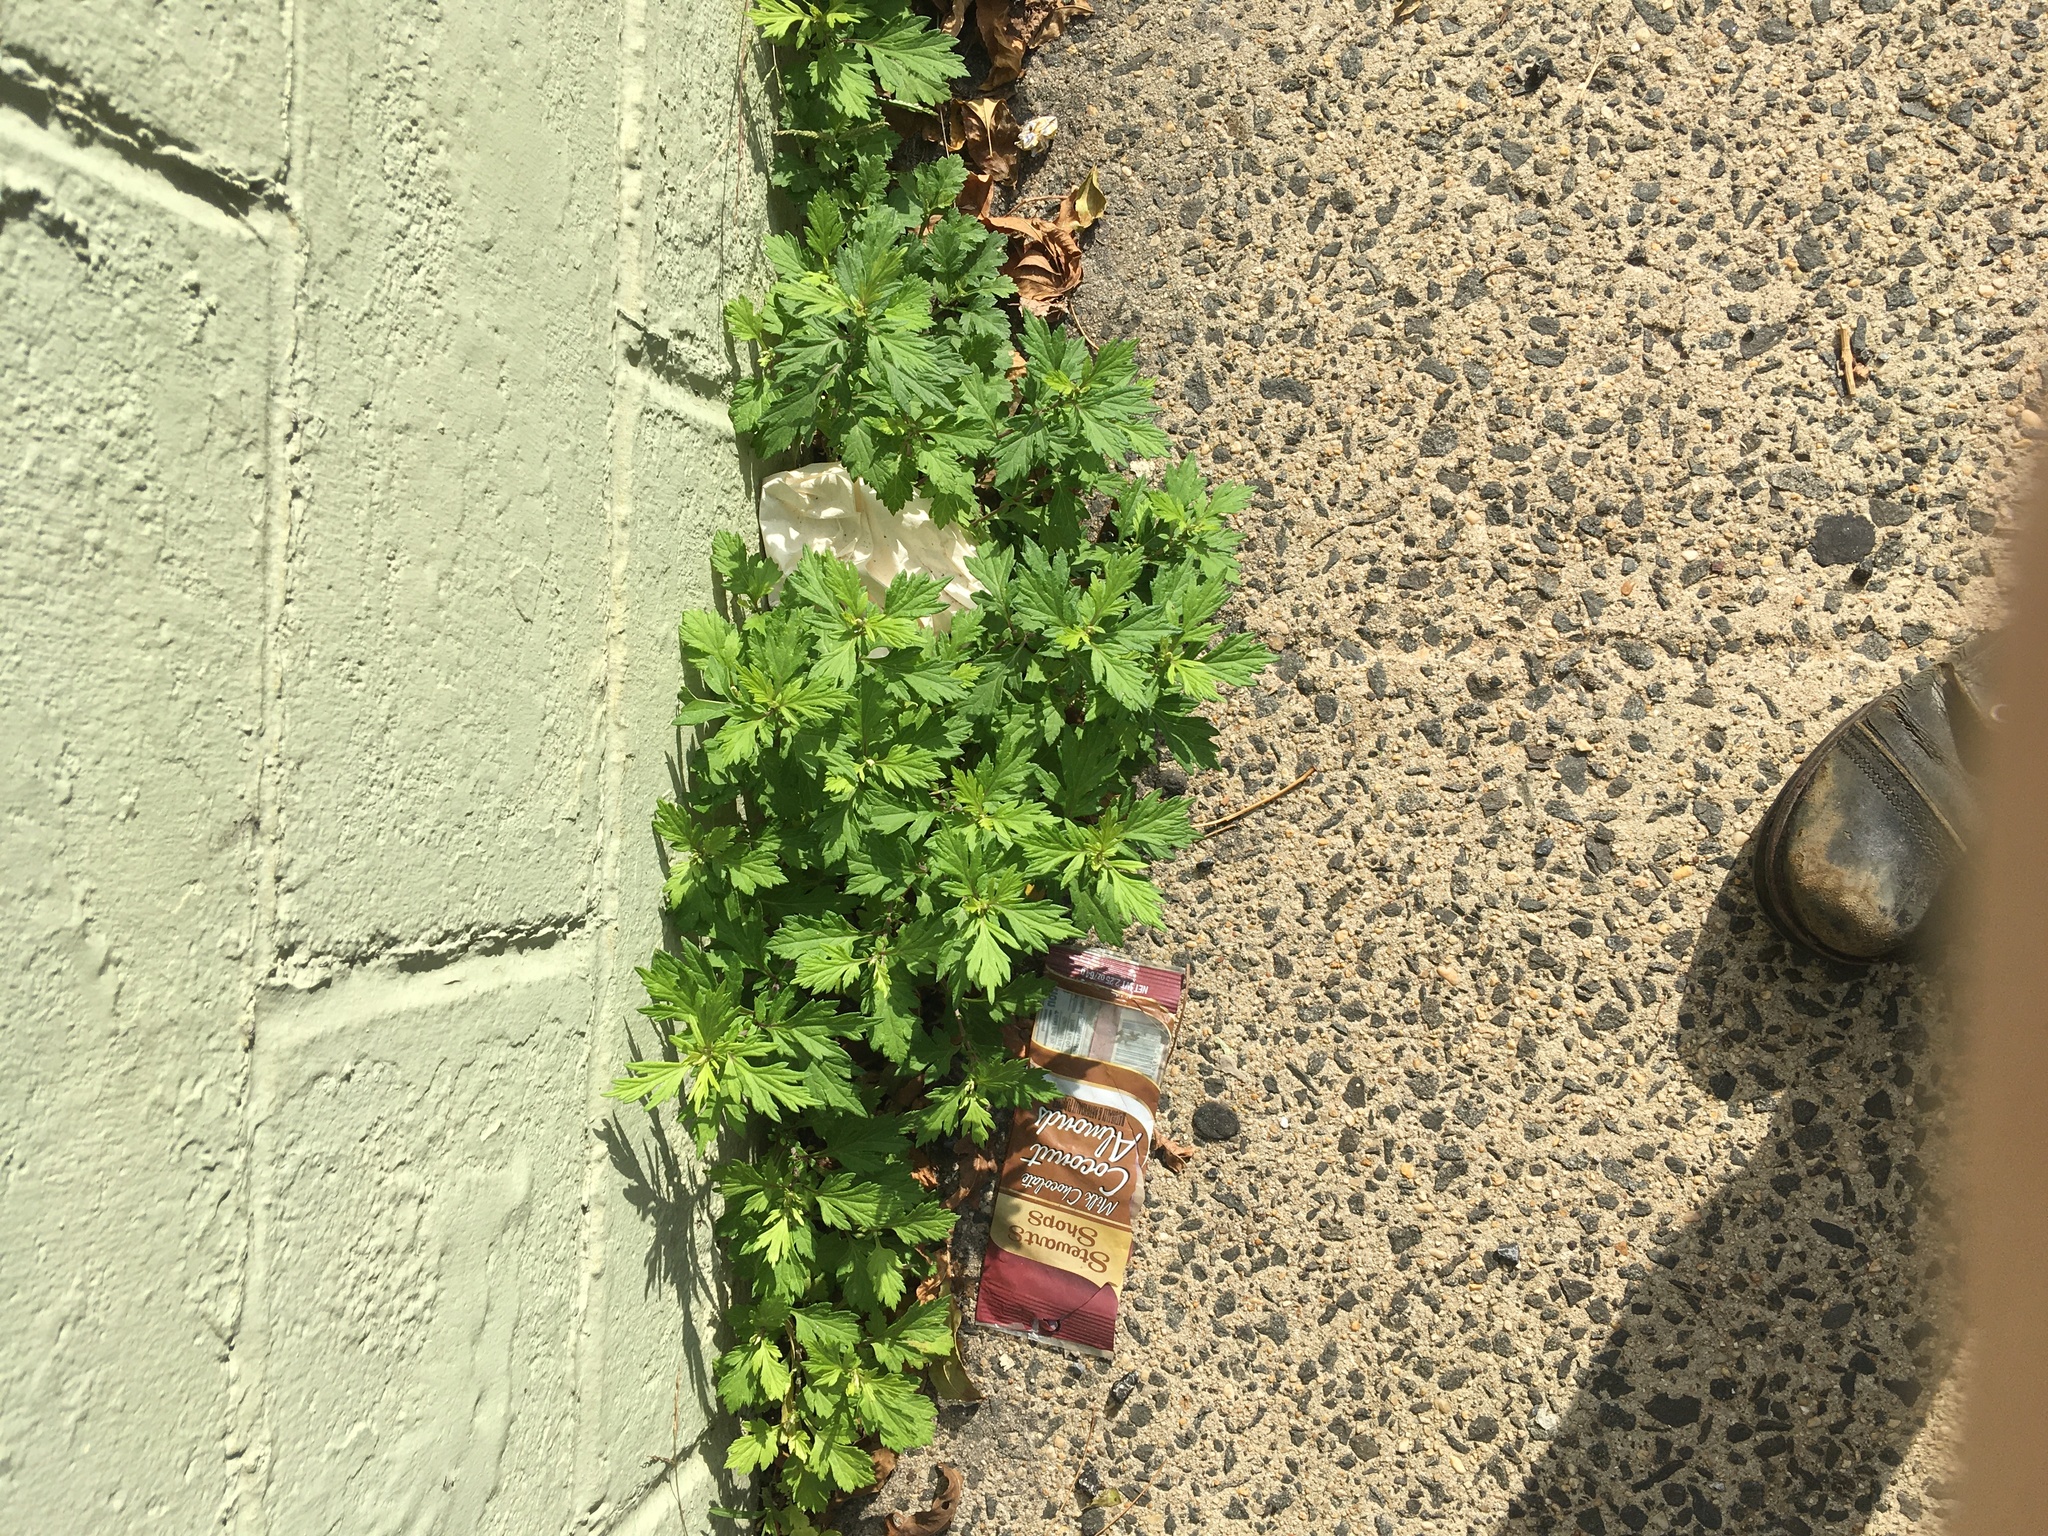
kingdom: Plantae
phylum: Tracheophyta
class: Magnoliopsida
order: Asterales
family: Asteraceae
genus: Artemisia
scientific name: Artemisia vulgaris
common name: Mugwort
